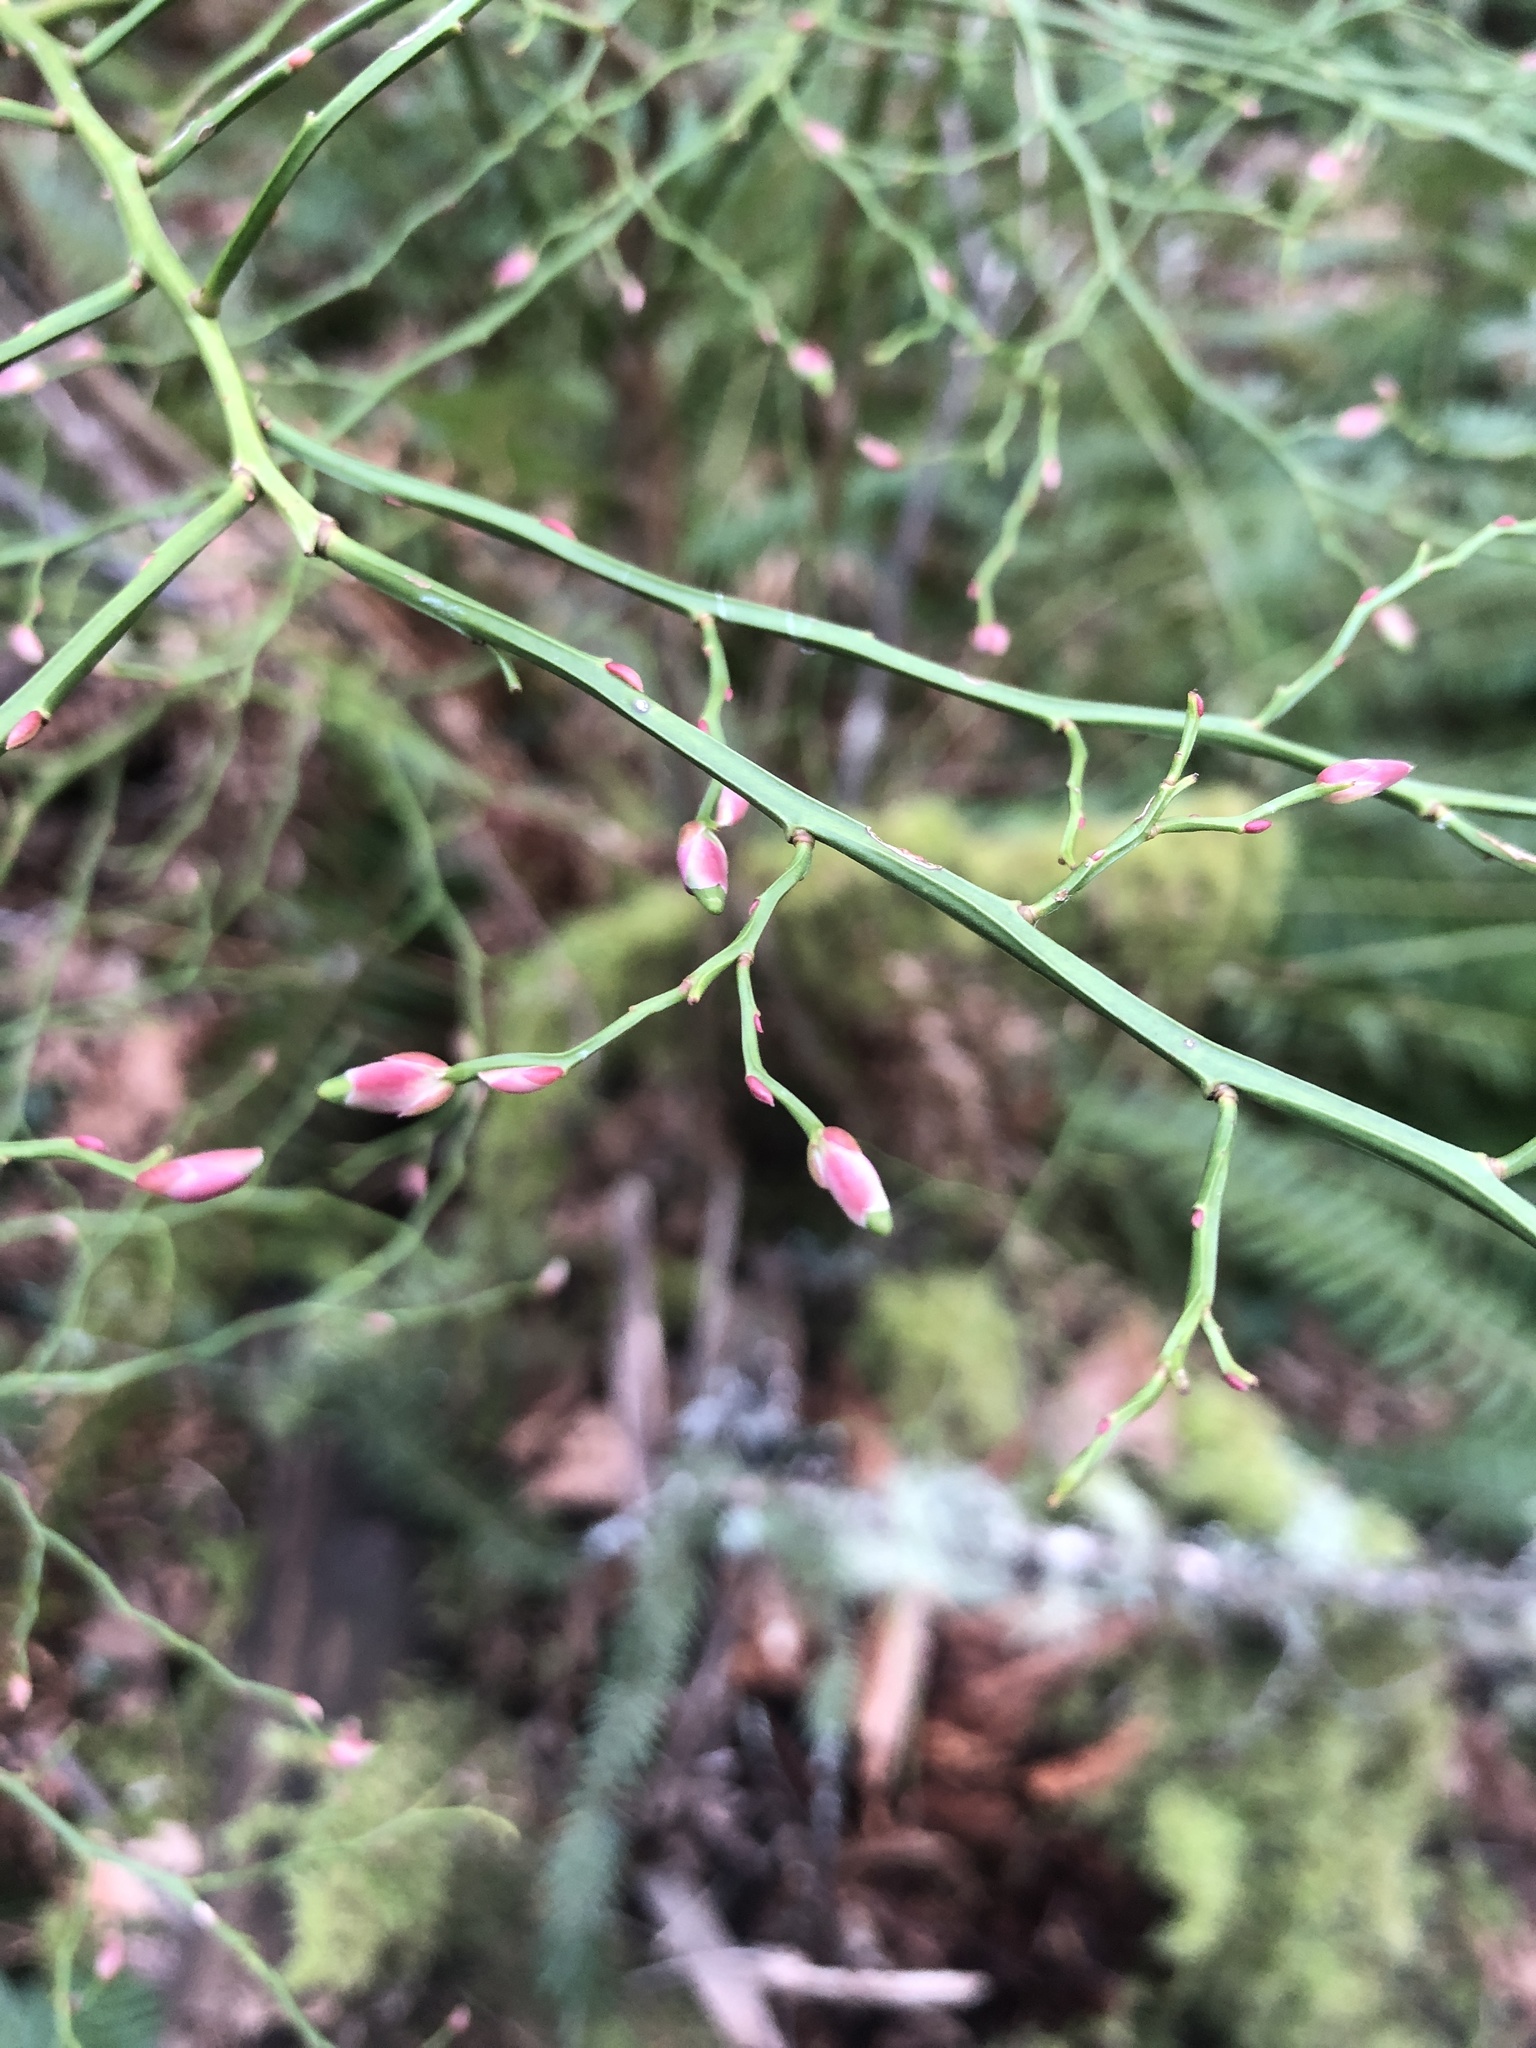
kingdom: Plantae
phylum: Tracheophyta
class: Magnoliopsida
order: Ericales
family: Ericaceae
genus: Vaccinium
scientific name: Vaccinium parvifolium
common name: Red-huckleberry
